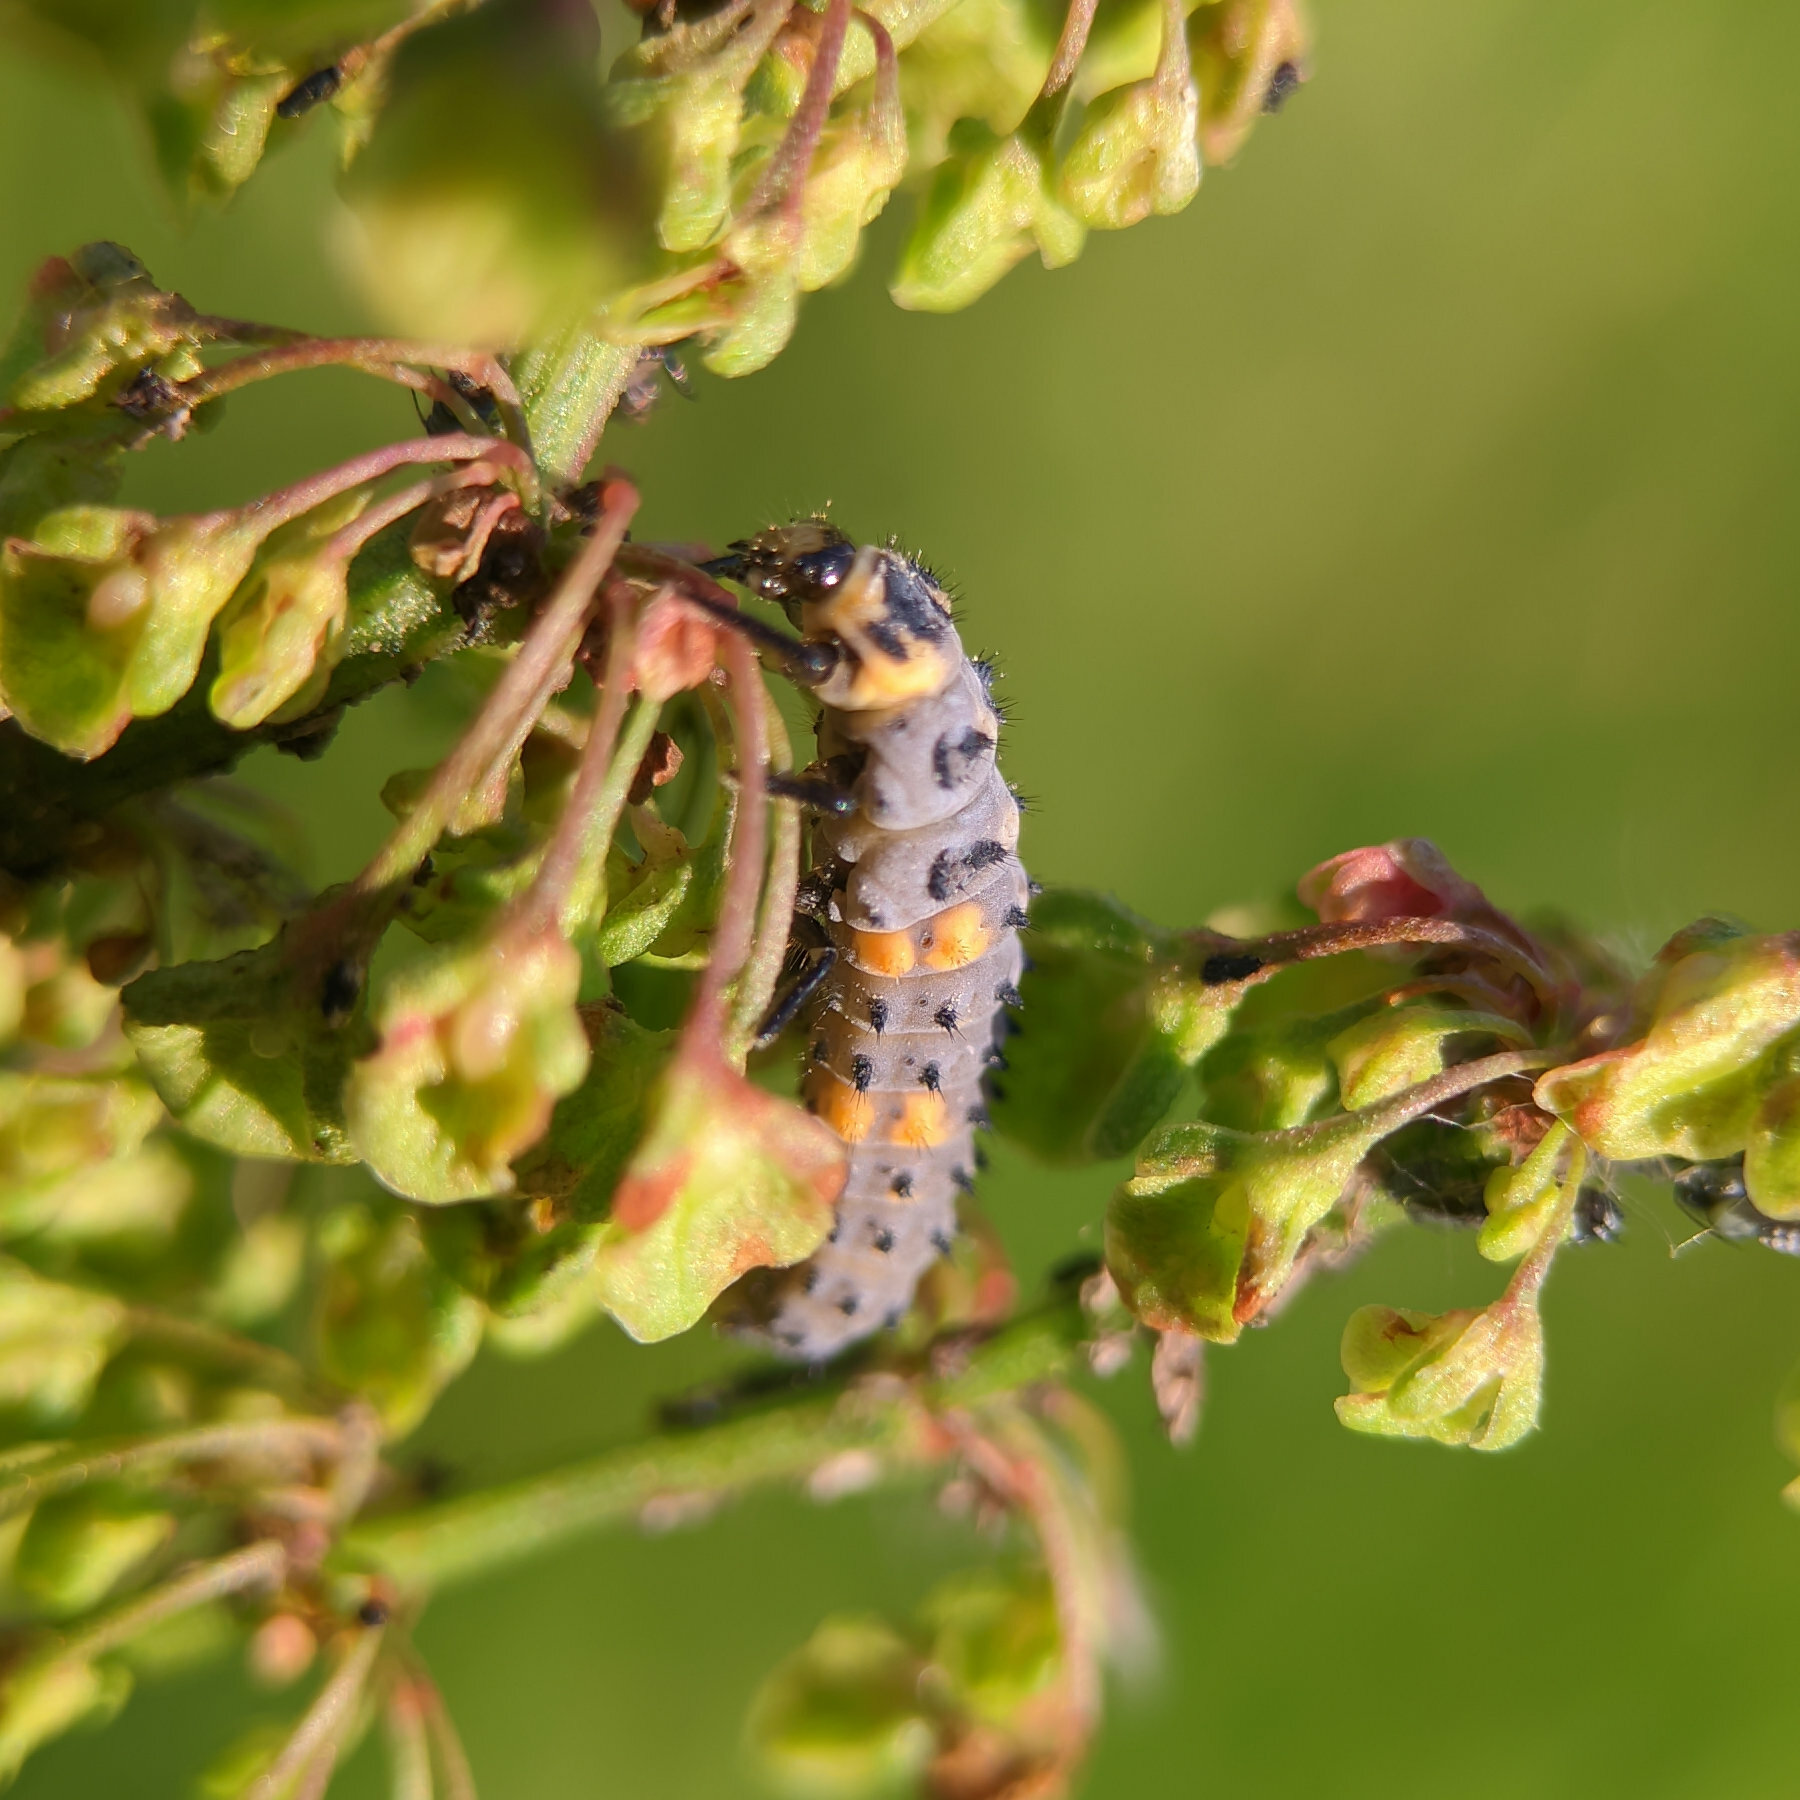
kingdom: Animalia
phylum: Arthropoda
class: Insecta
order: Coleoptera
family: Coccinellidae
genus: Coccinella
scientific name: Coccinella septempunctata
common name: Sevenspotted lady beetle
